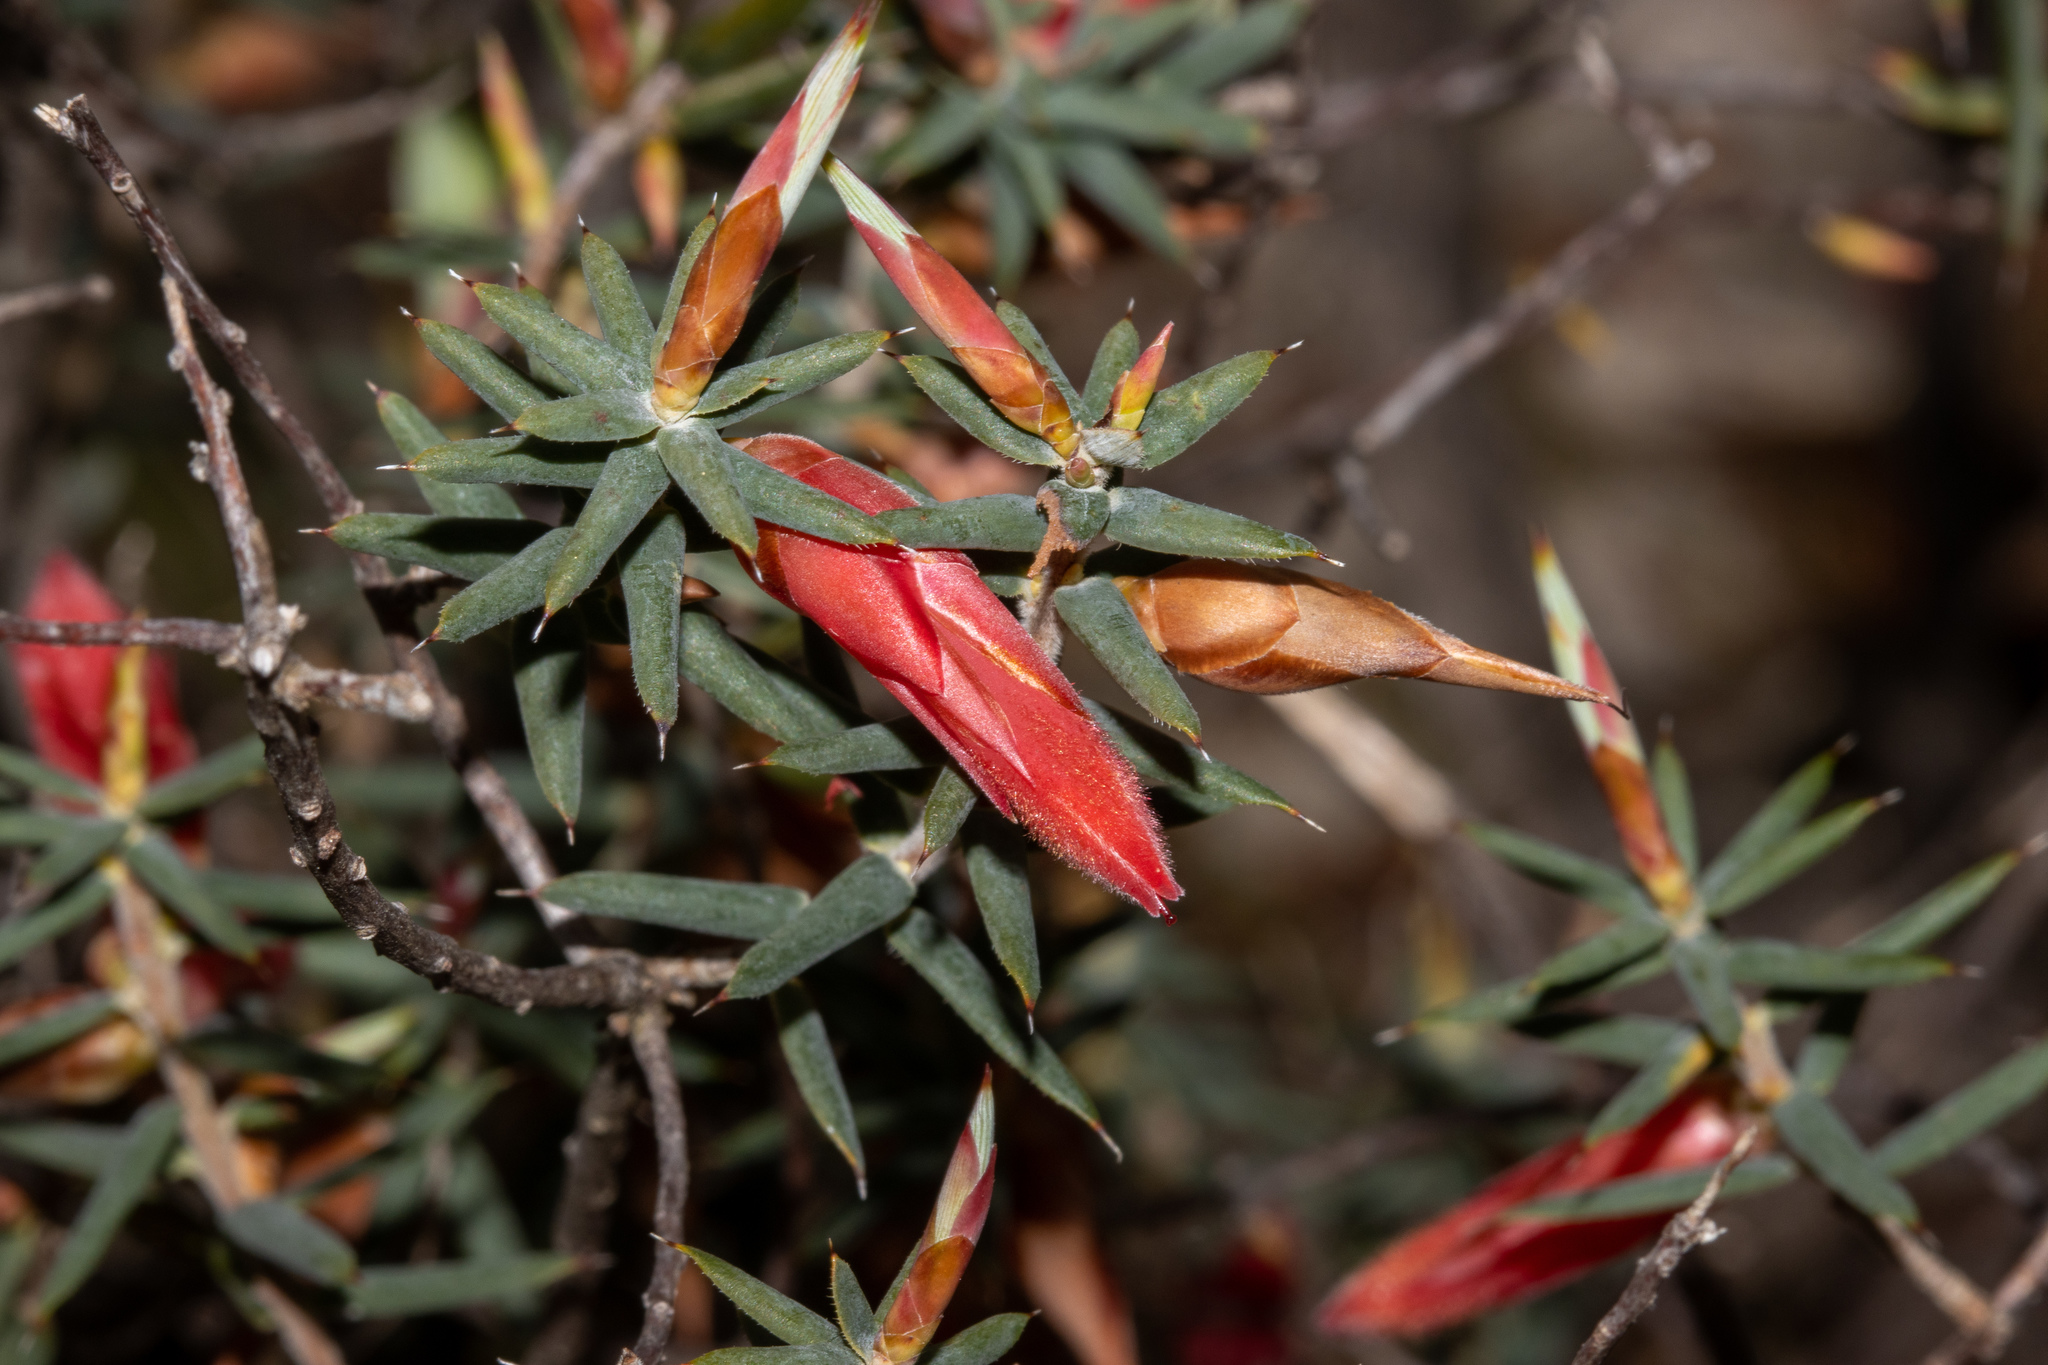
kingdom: Plantae
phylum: Tracheophyta
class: Magnoliopsida
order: Ericales
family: Ericaceae
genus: Stenanthera
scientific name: Stenanthera conostephioides
